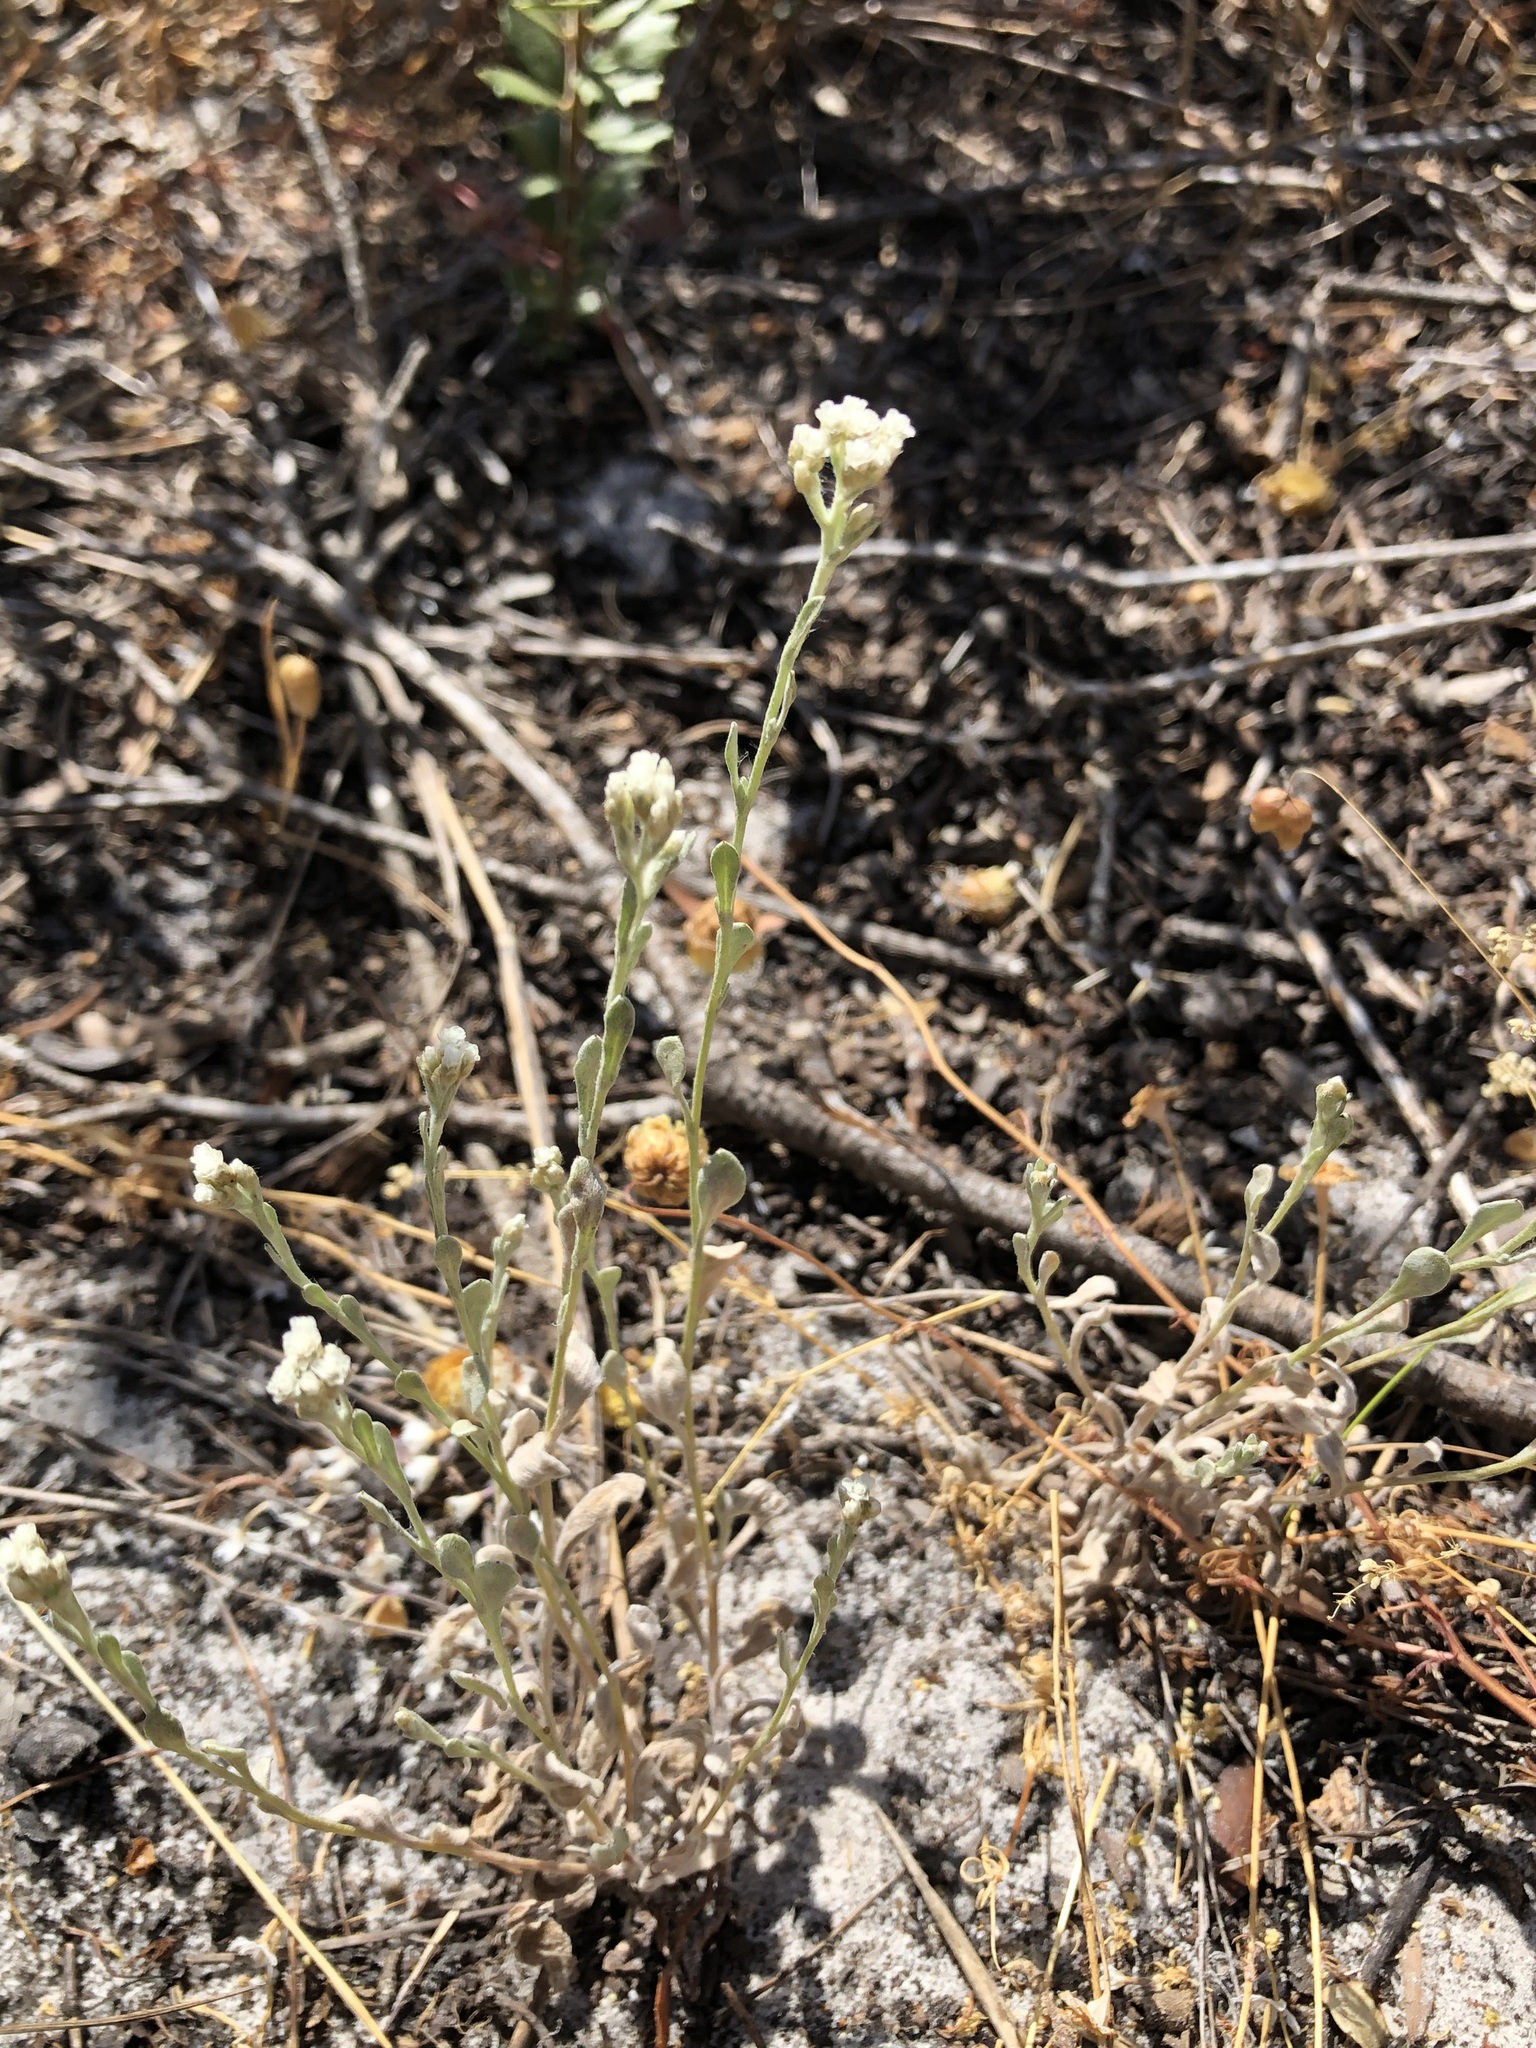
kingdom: Plantae
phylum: Tracheophyta
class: Magnoliopsida
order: Asterales
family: Asteraceae
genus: Helichrysum
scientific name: Helichrysum indicum
